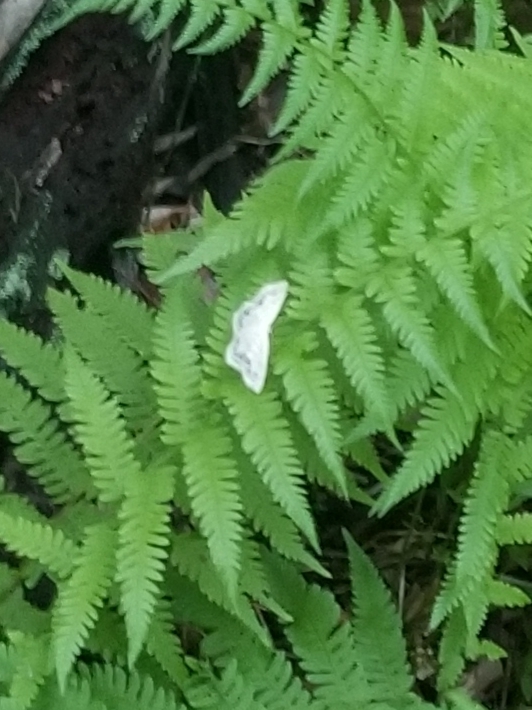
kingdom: Animalia
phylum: Arthropoda
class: Insecta
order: Lepidoptera
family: Geometridae
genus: Scopula
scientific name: Scopula limboundata
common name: Large lace border
